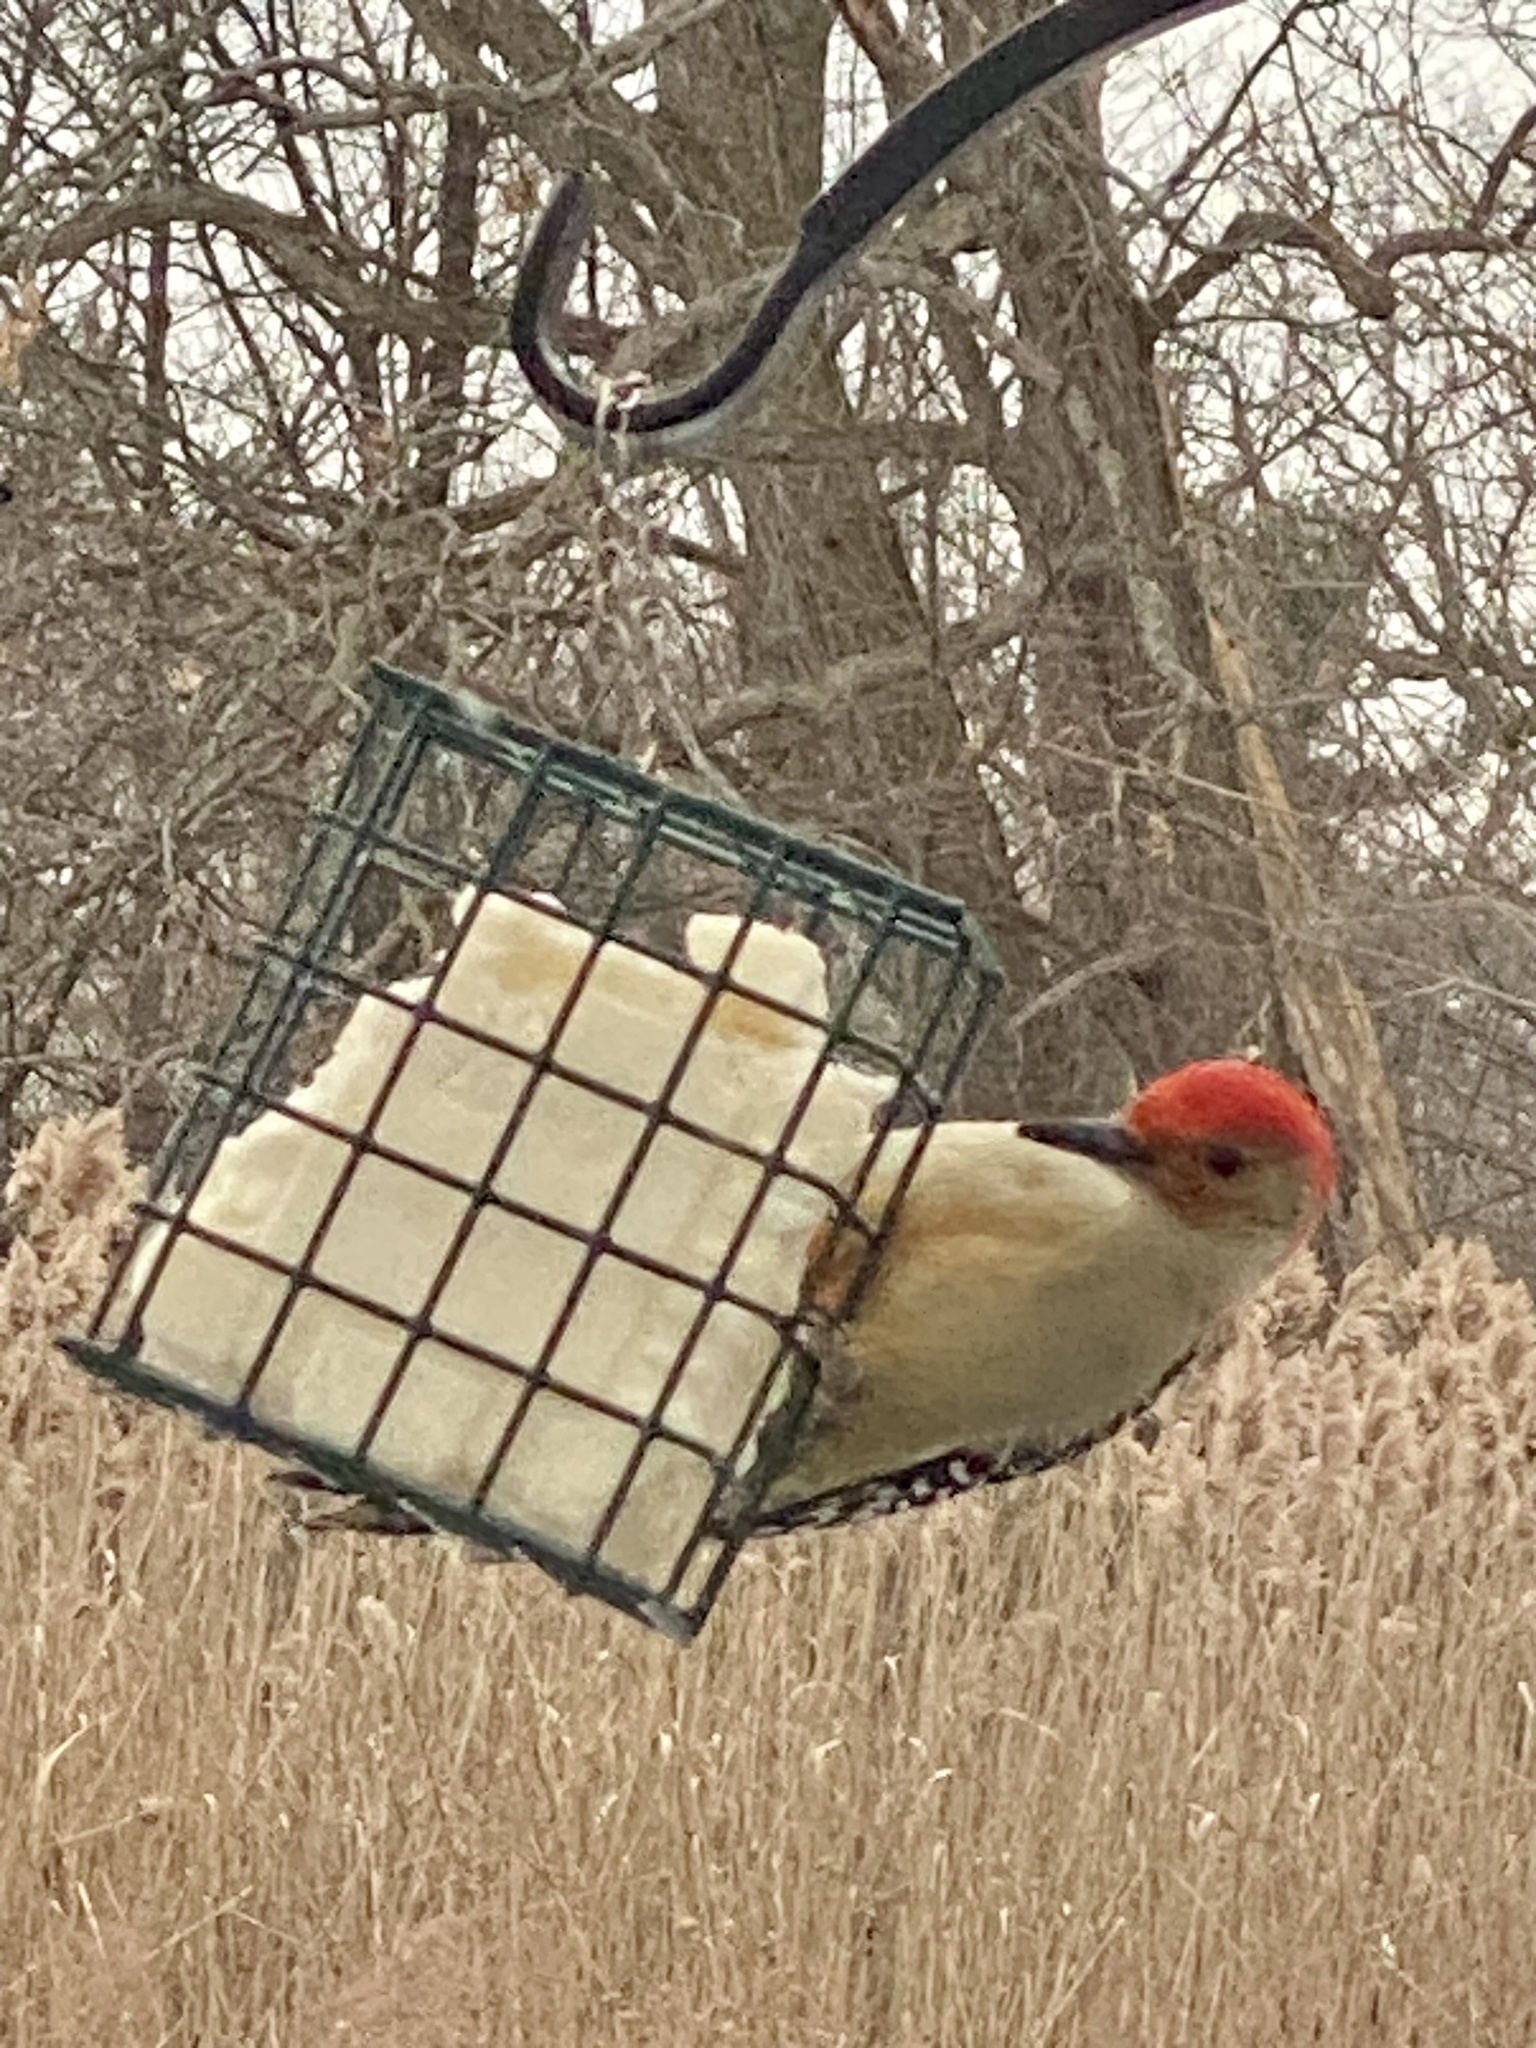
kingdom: Animalia
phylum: Chordata
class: Aves
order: Piciformes
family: Picidae
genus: Melanerpes
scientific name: Melanerpes carolinus
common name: Red-bellied woodpecker
